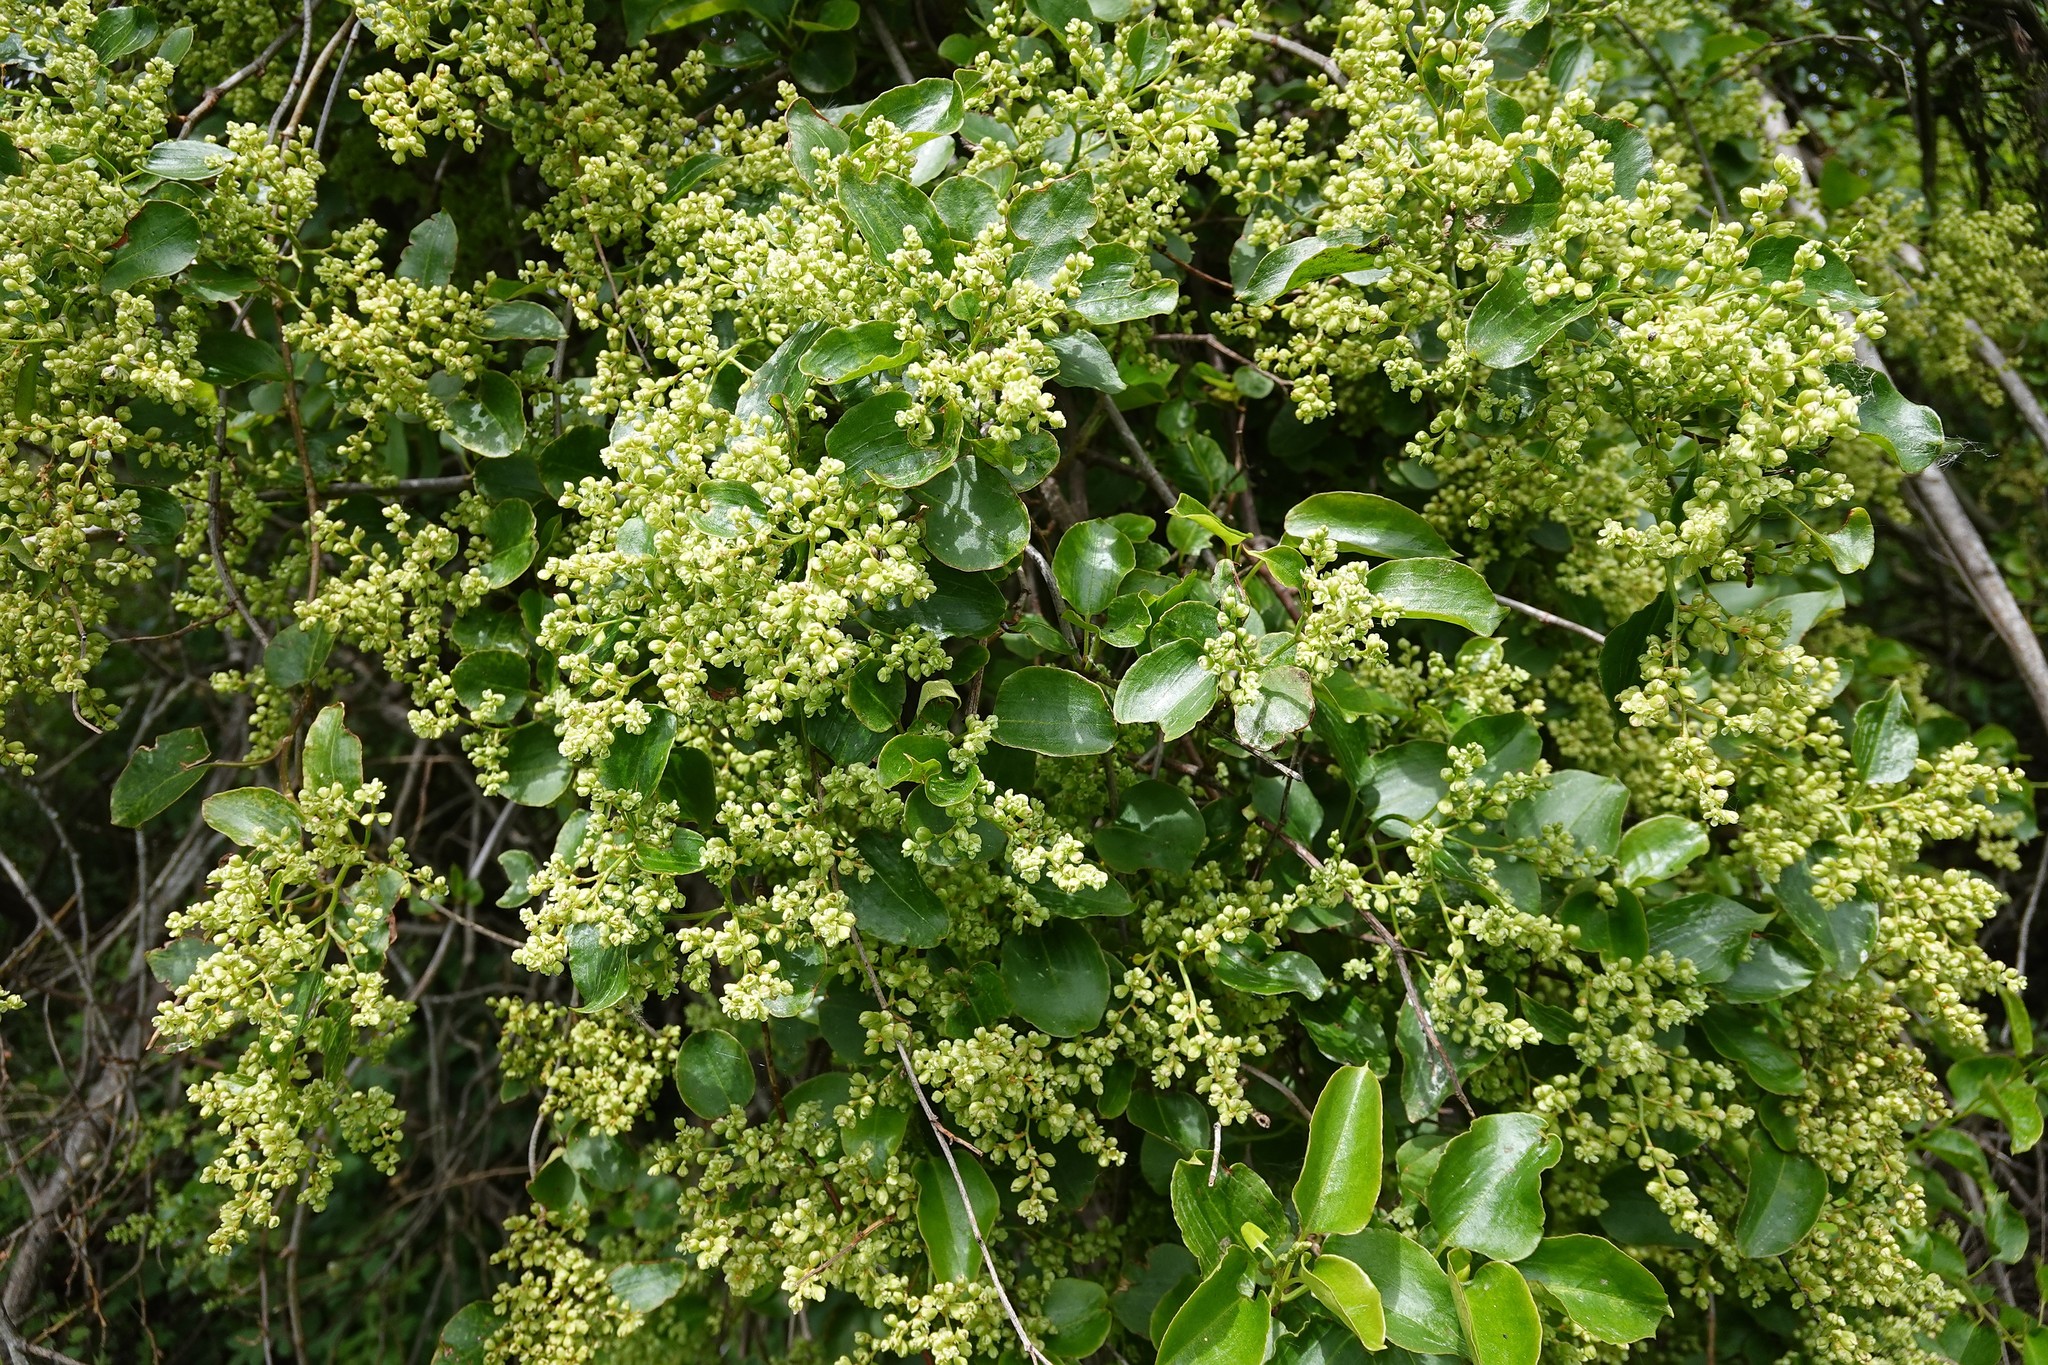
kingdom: Plantae
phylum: Tracheophyta
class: Magnoliopsida
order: Caryophyllales
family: Polygonaceae
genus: Muehlenbeckia
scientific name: Muehlenbeckia australis
